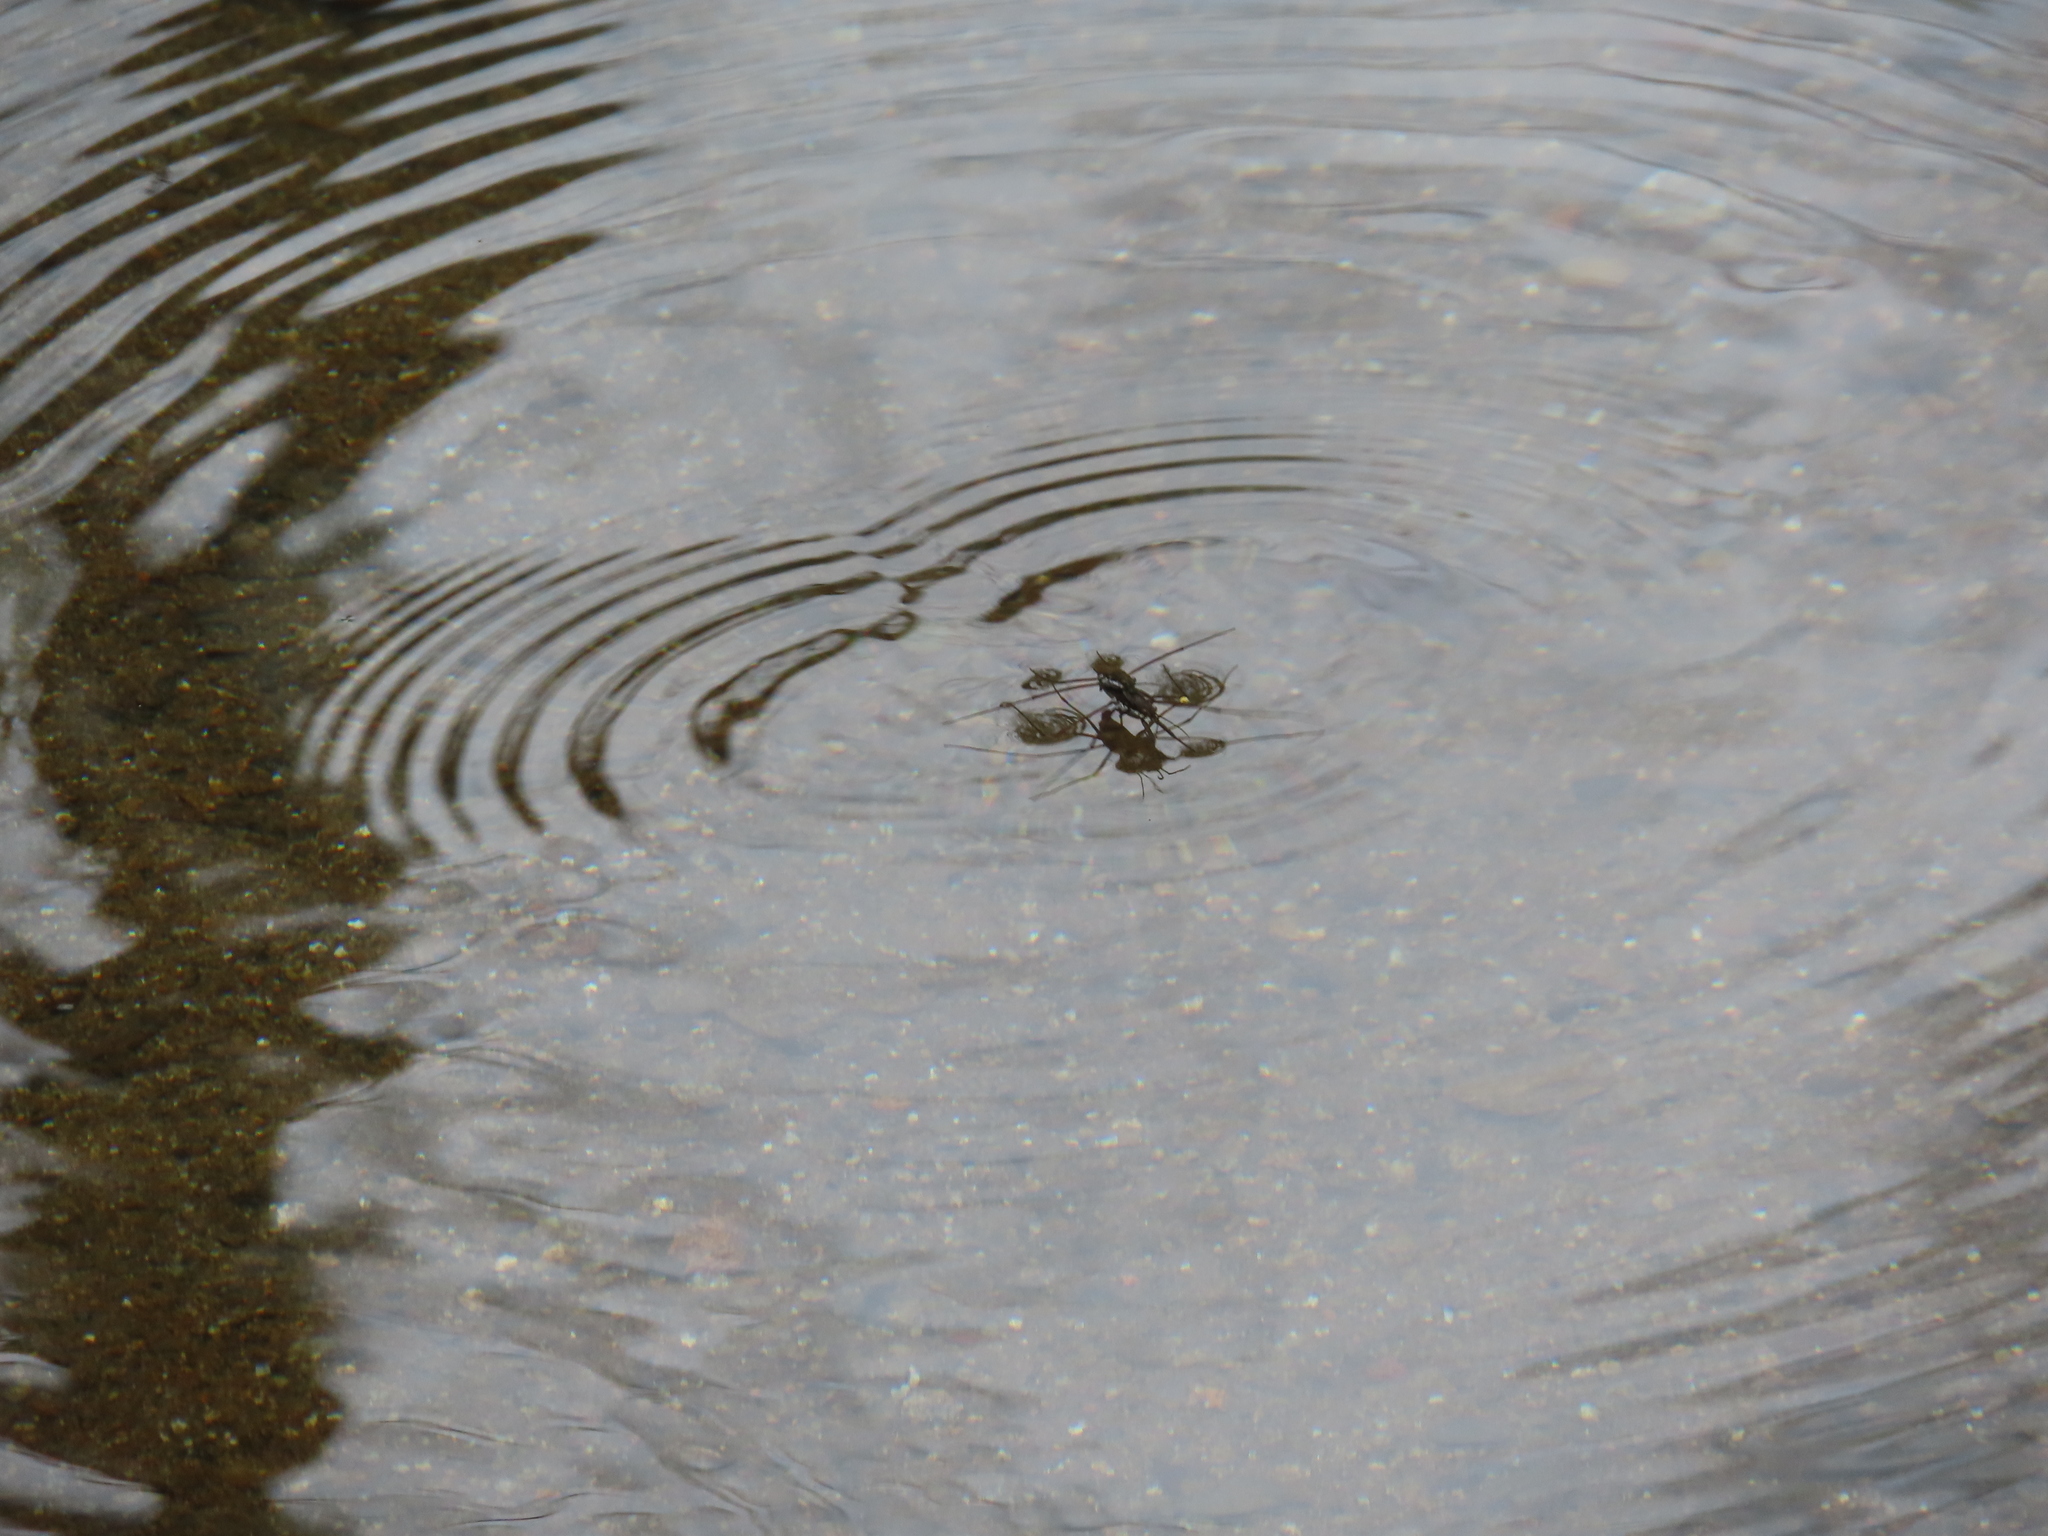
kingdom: Animalia
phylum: Arthropoda
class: Insecta
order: Hemiptera
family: Gerridae
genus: Aquarius
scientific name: Aquarius
